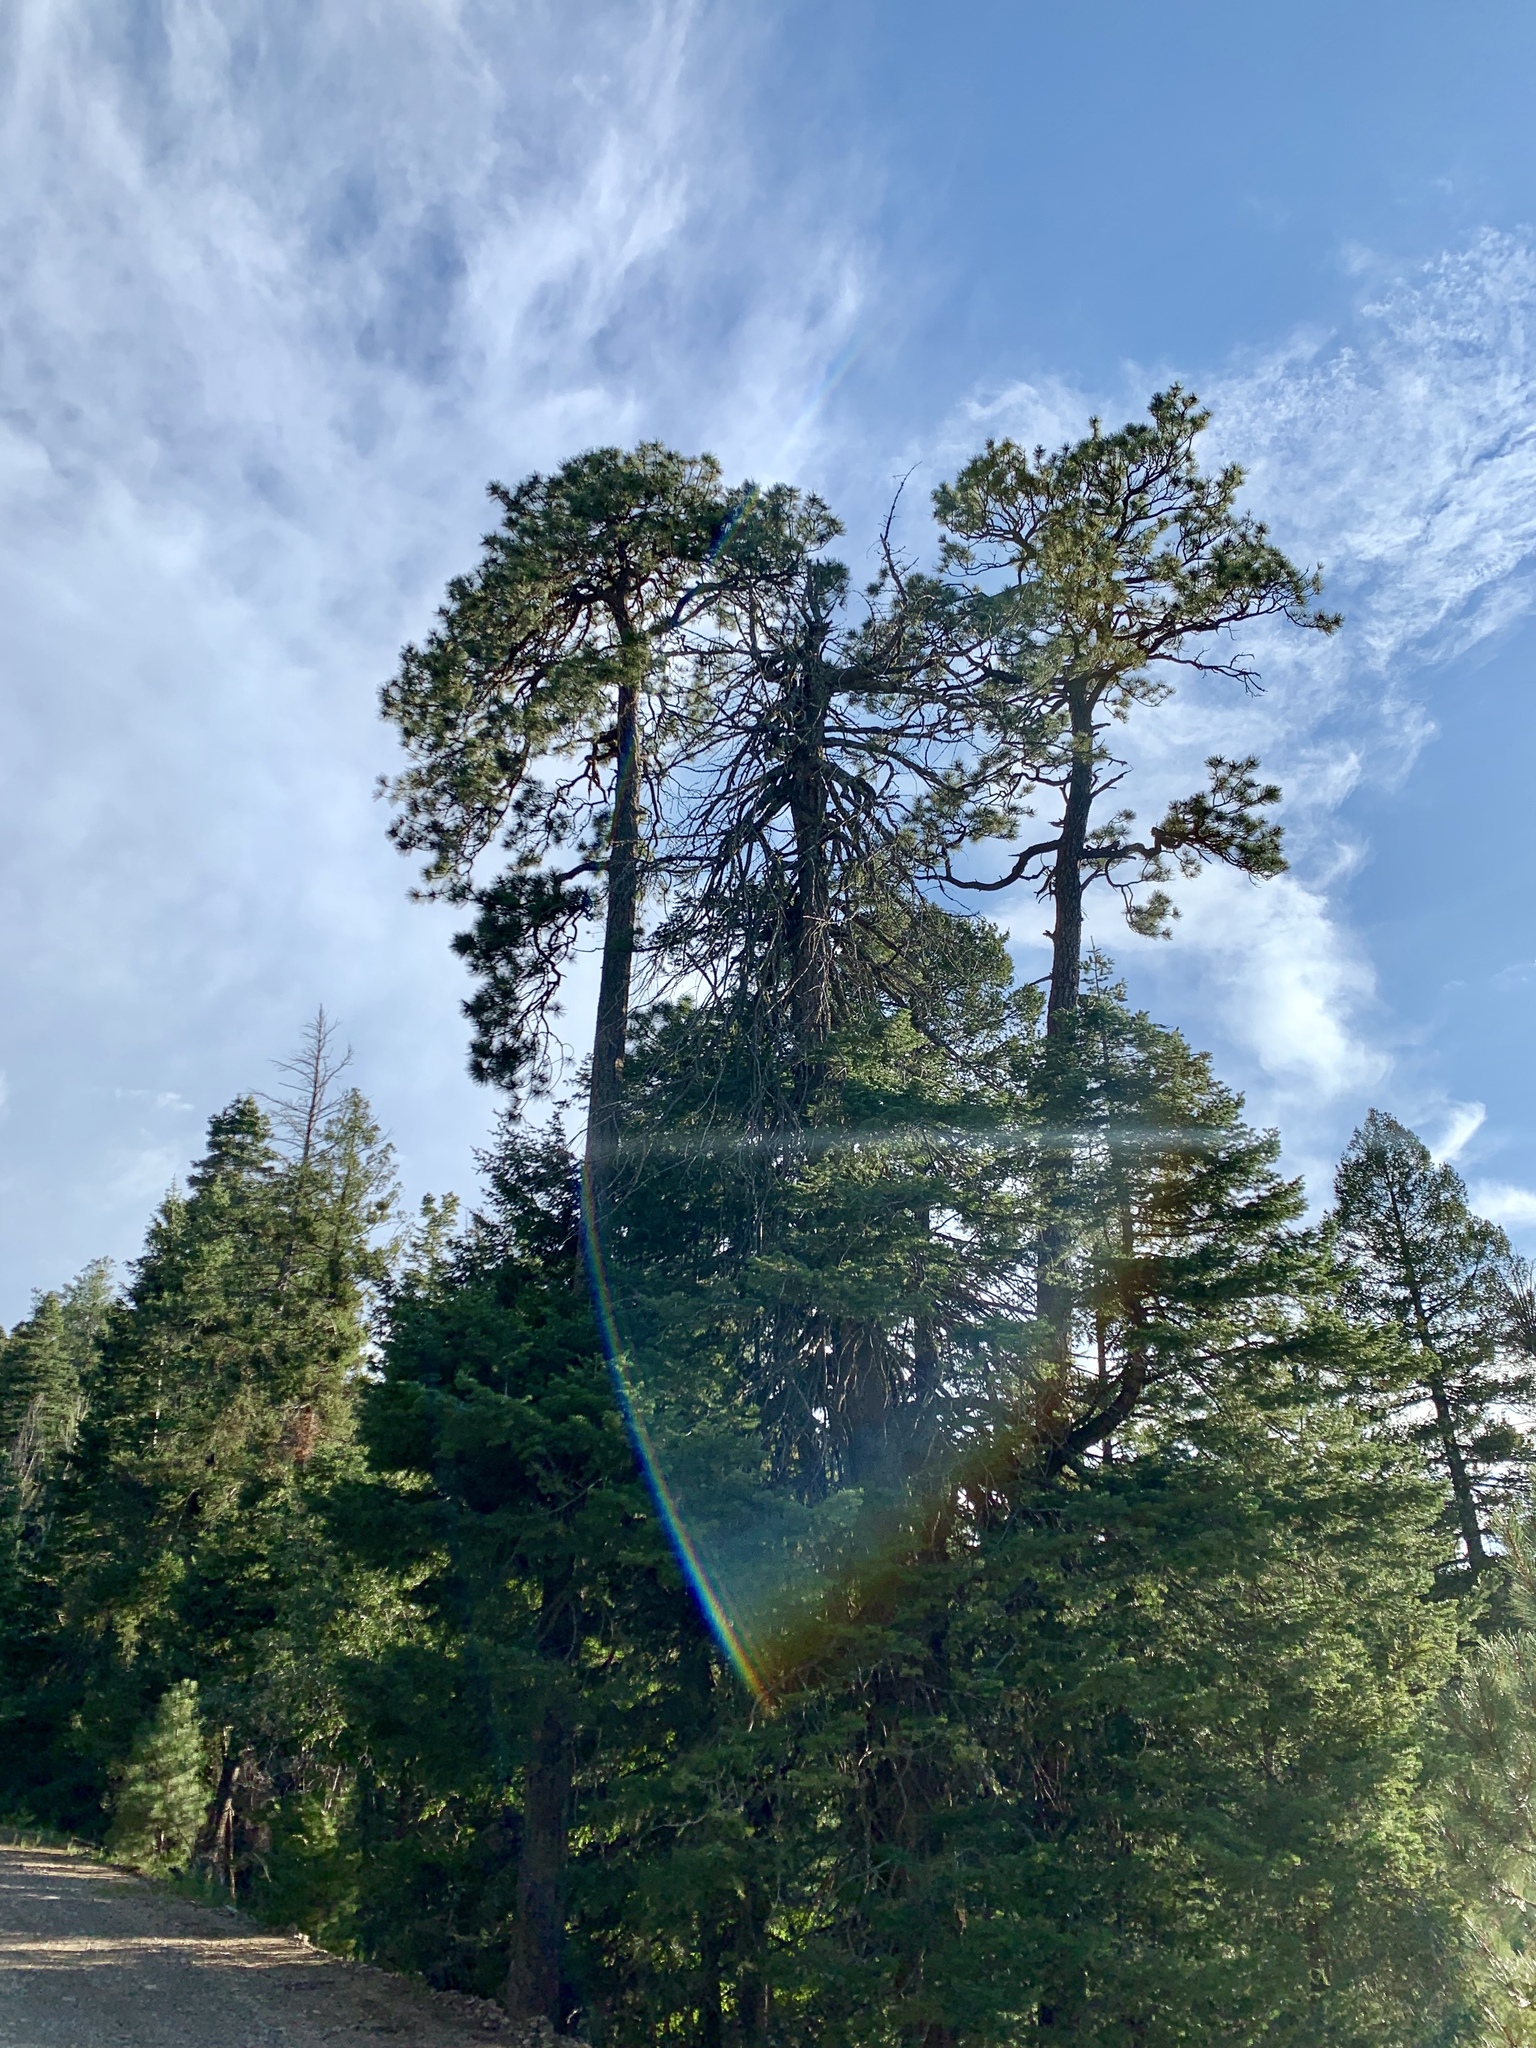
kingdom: Plantae
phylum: Tracheophyta
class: Pinopsida
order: Pinales
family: Pinaceae
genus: Pinus
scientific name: Pinus ponderosa
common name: Western yellow-pine
